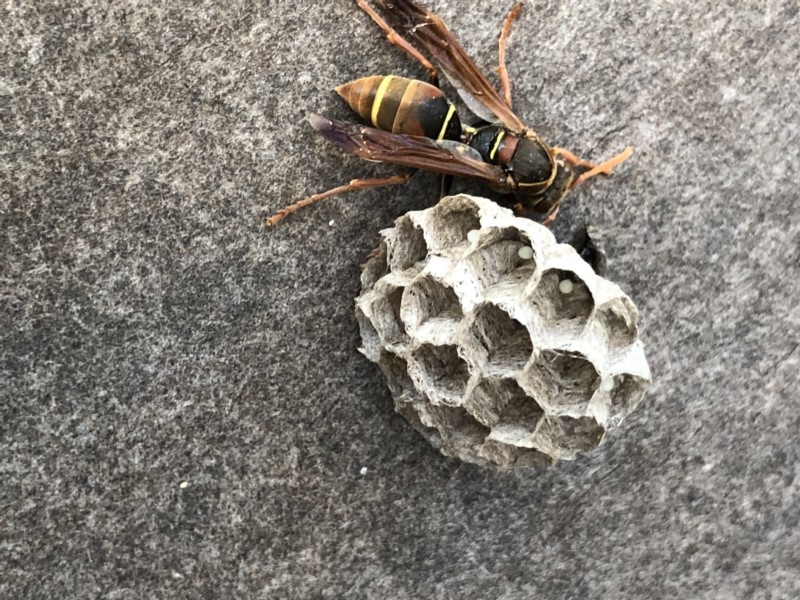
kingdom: Animalia
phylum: Arthropoda
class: Insecta
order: Hymenoptera
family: Eumenidae
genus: Polistes
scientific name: Polistes humilis
